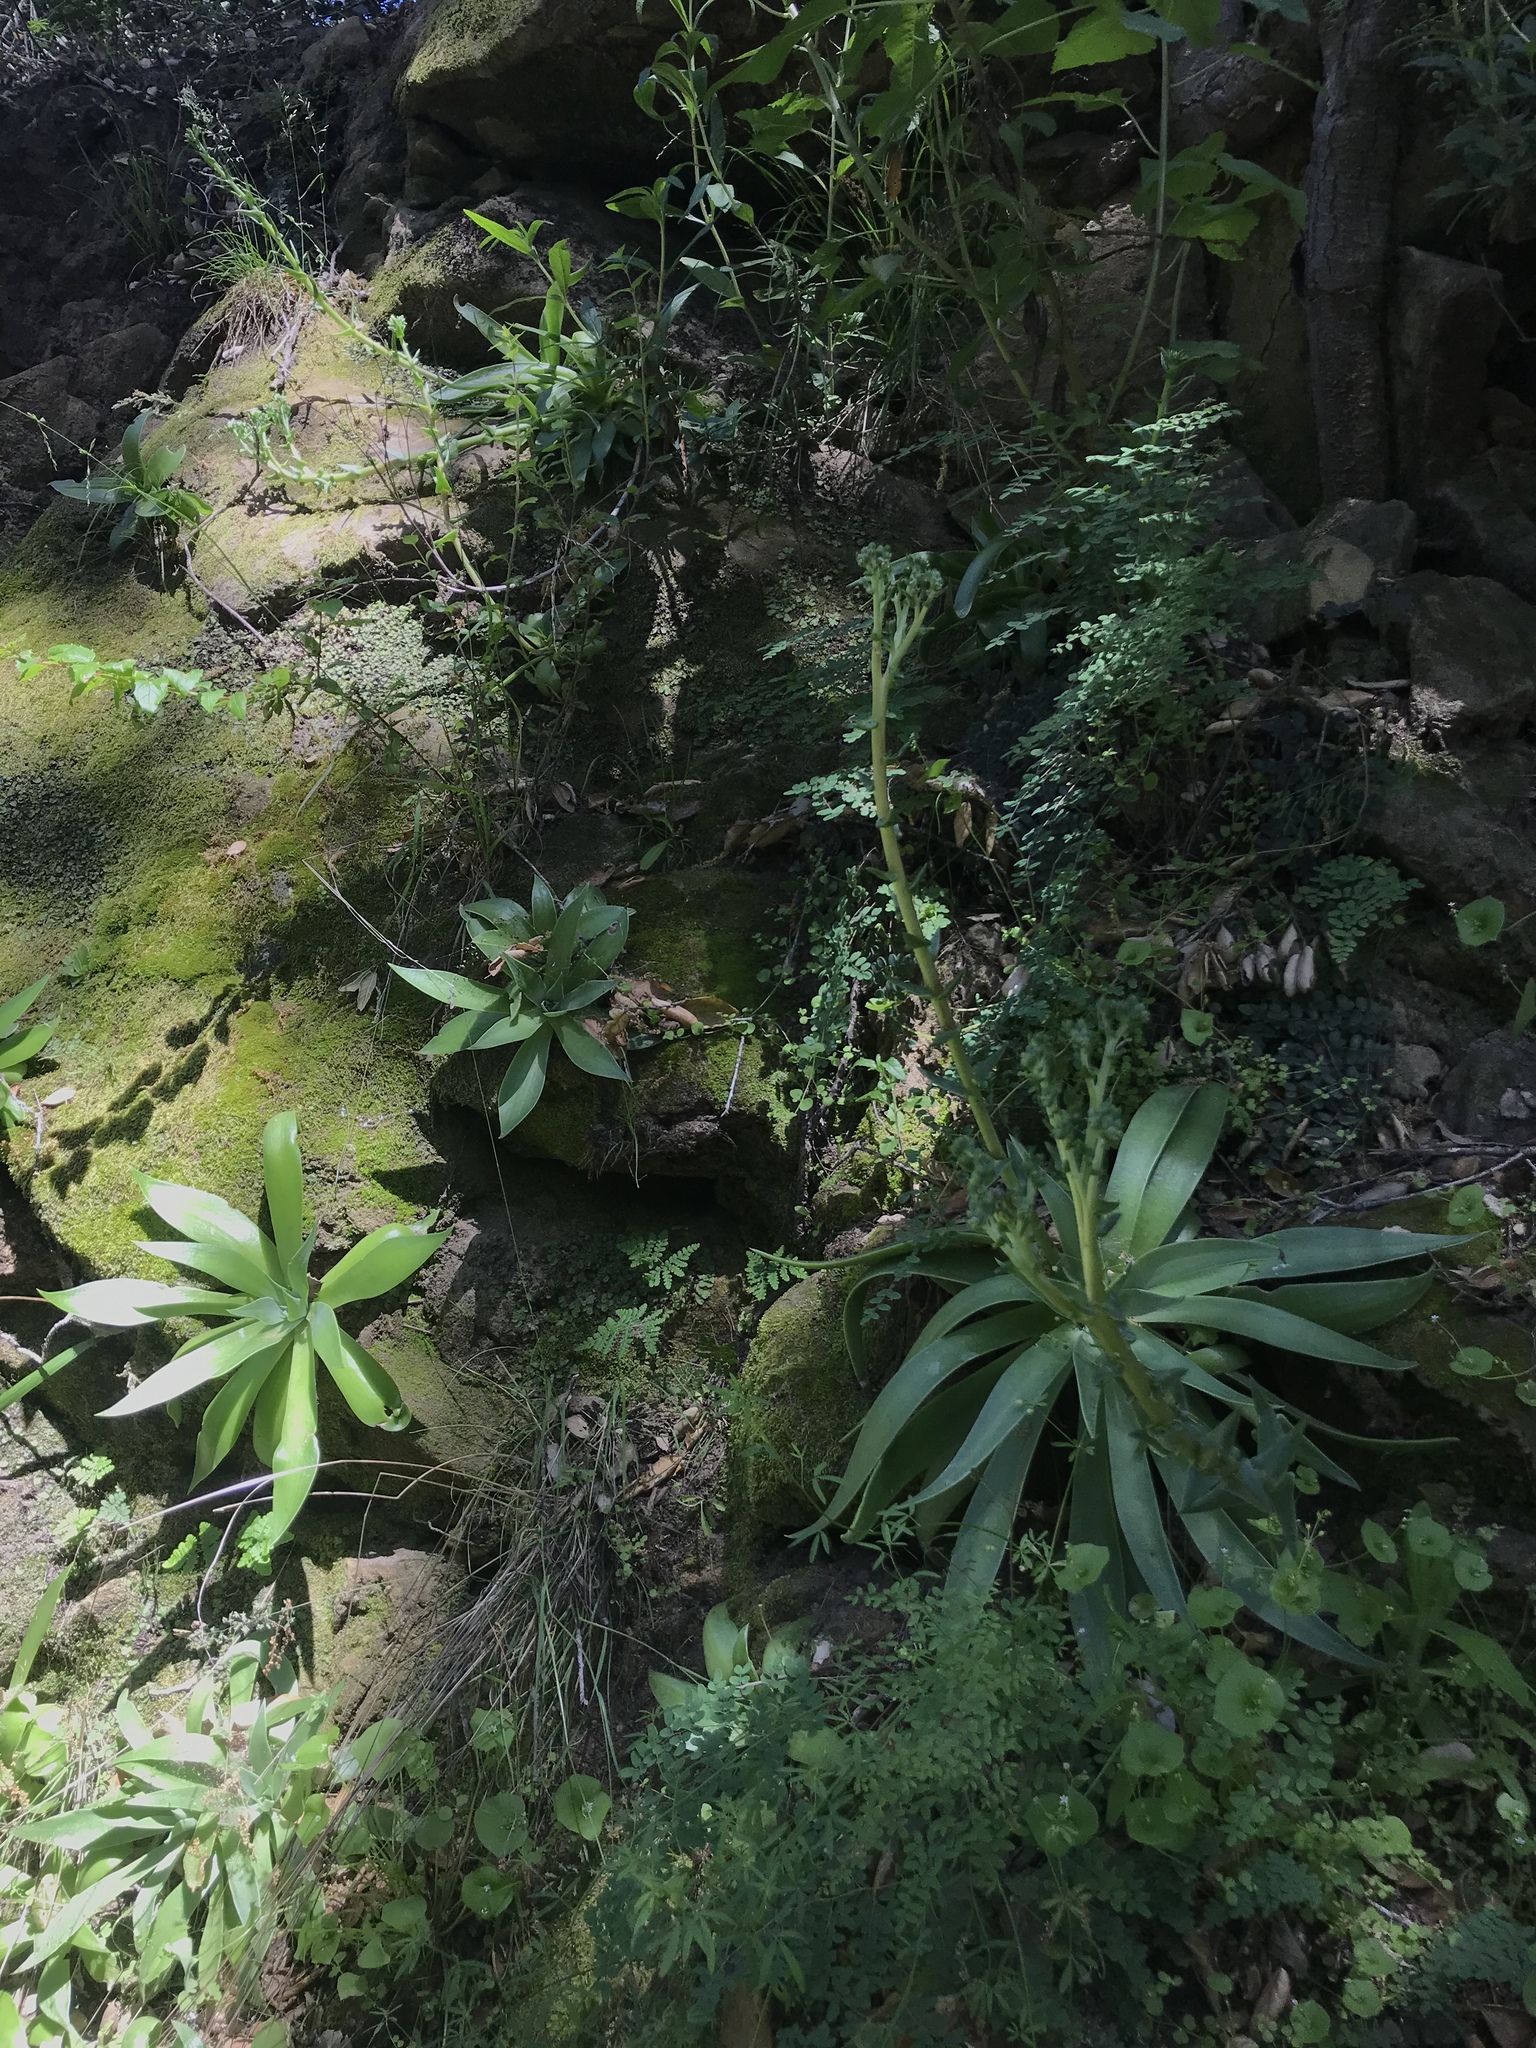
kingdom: Plantae
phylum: Tracheophyta
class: Magnoliopsida
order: Saxifragales
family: Crassulaceae
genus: Dudleya
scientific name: Dudleya lanceolata
